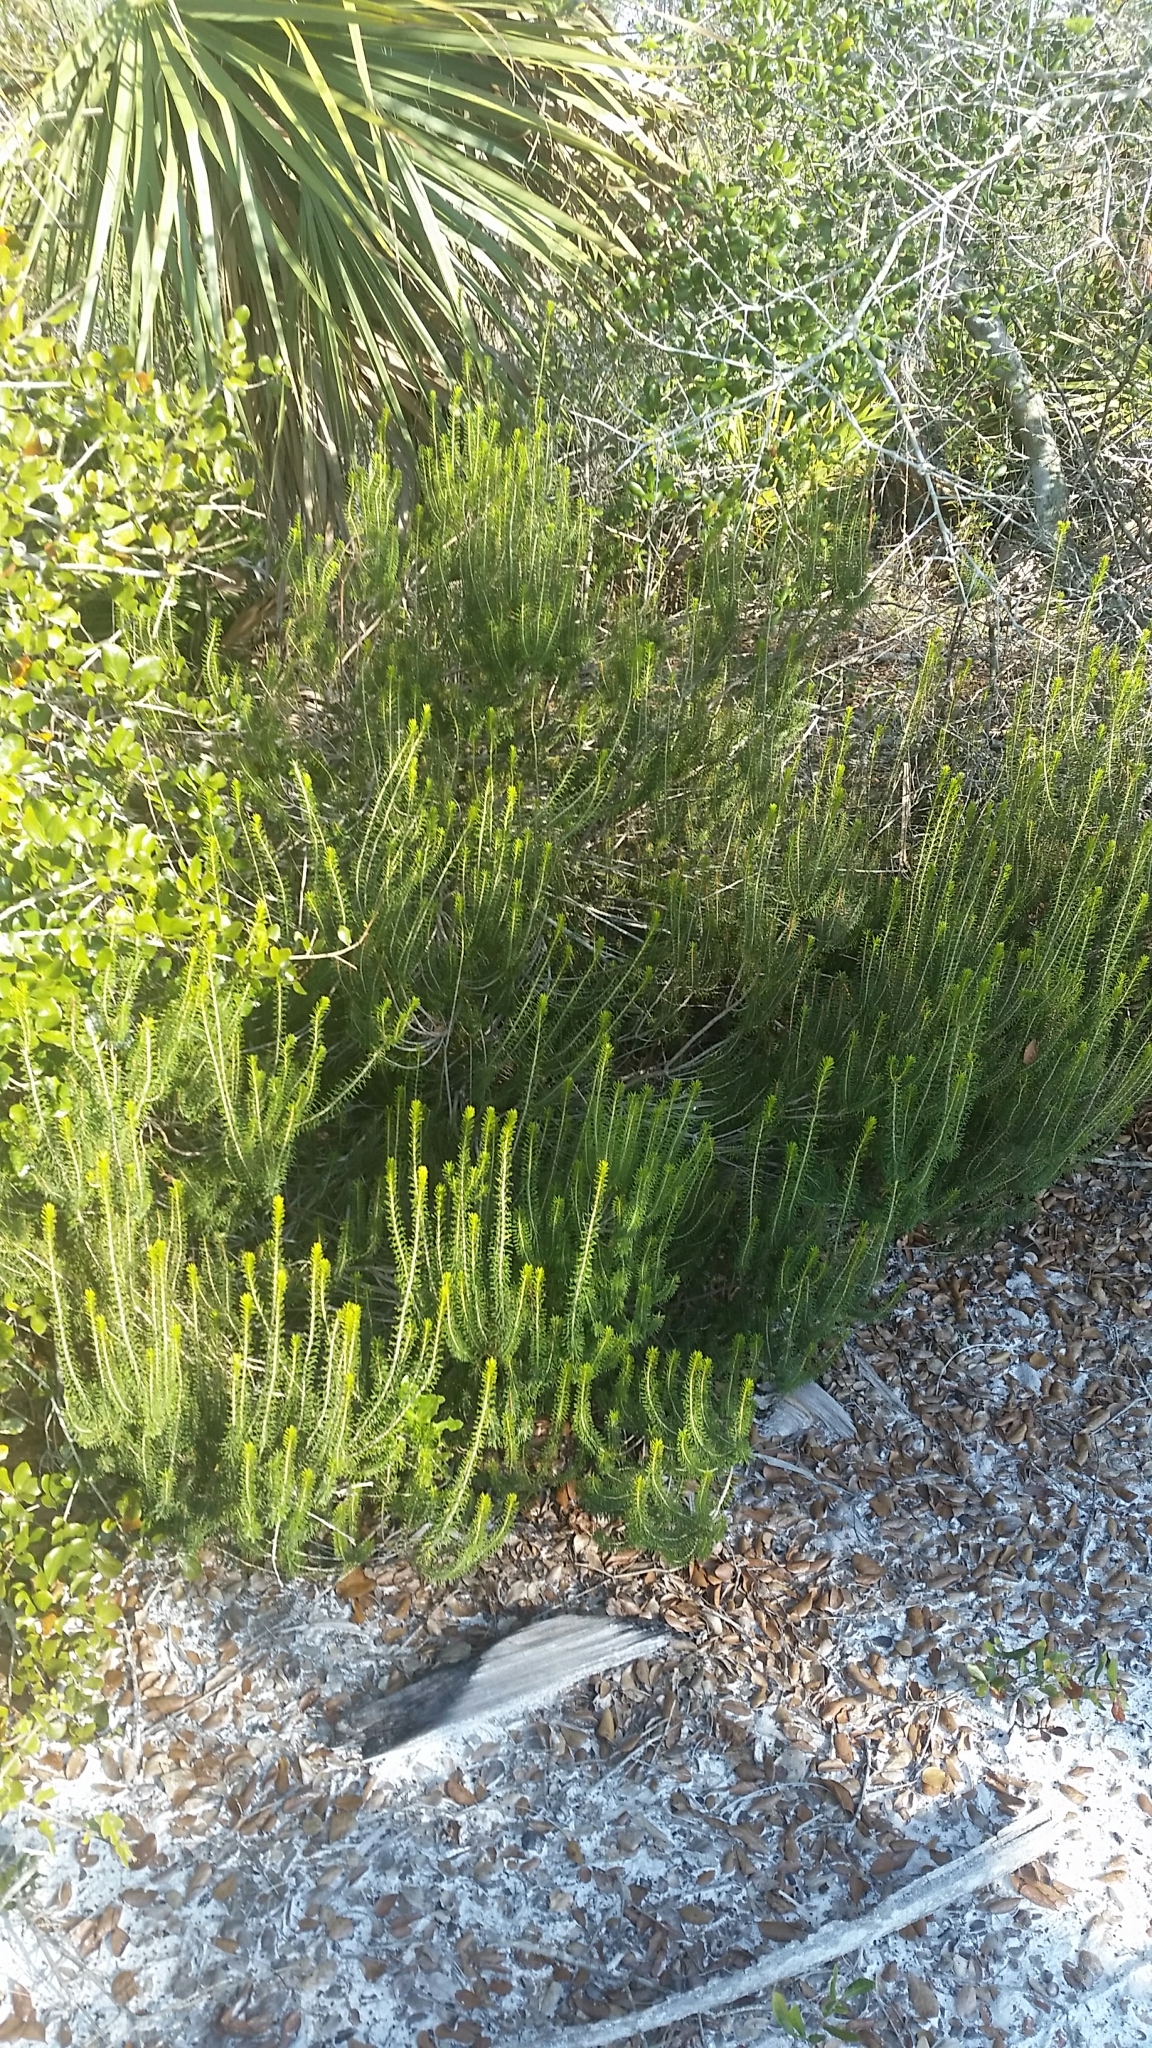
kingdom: Plantae
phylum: Tracheophyta
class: Magnoliopsida
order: Ericales
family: Ericaceae
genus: Ceratiola
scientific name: Ceratiola ericoides
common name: Sandhill-rosemary
